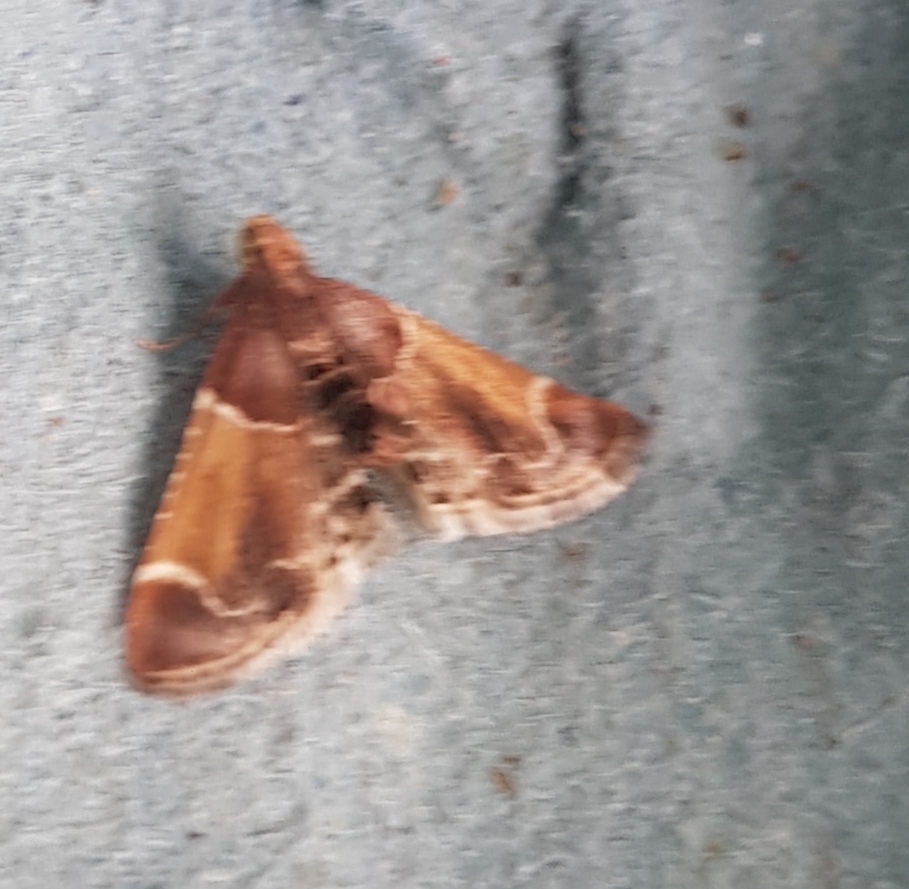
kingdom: Animalia
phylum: Arthropoda
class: Insecta
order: Lepidoptera
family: Pyralidae
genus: Pyralis
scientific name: Pyralis farinalis
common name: Meal moth
